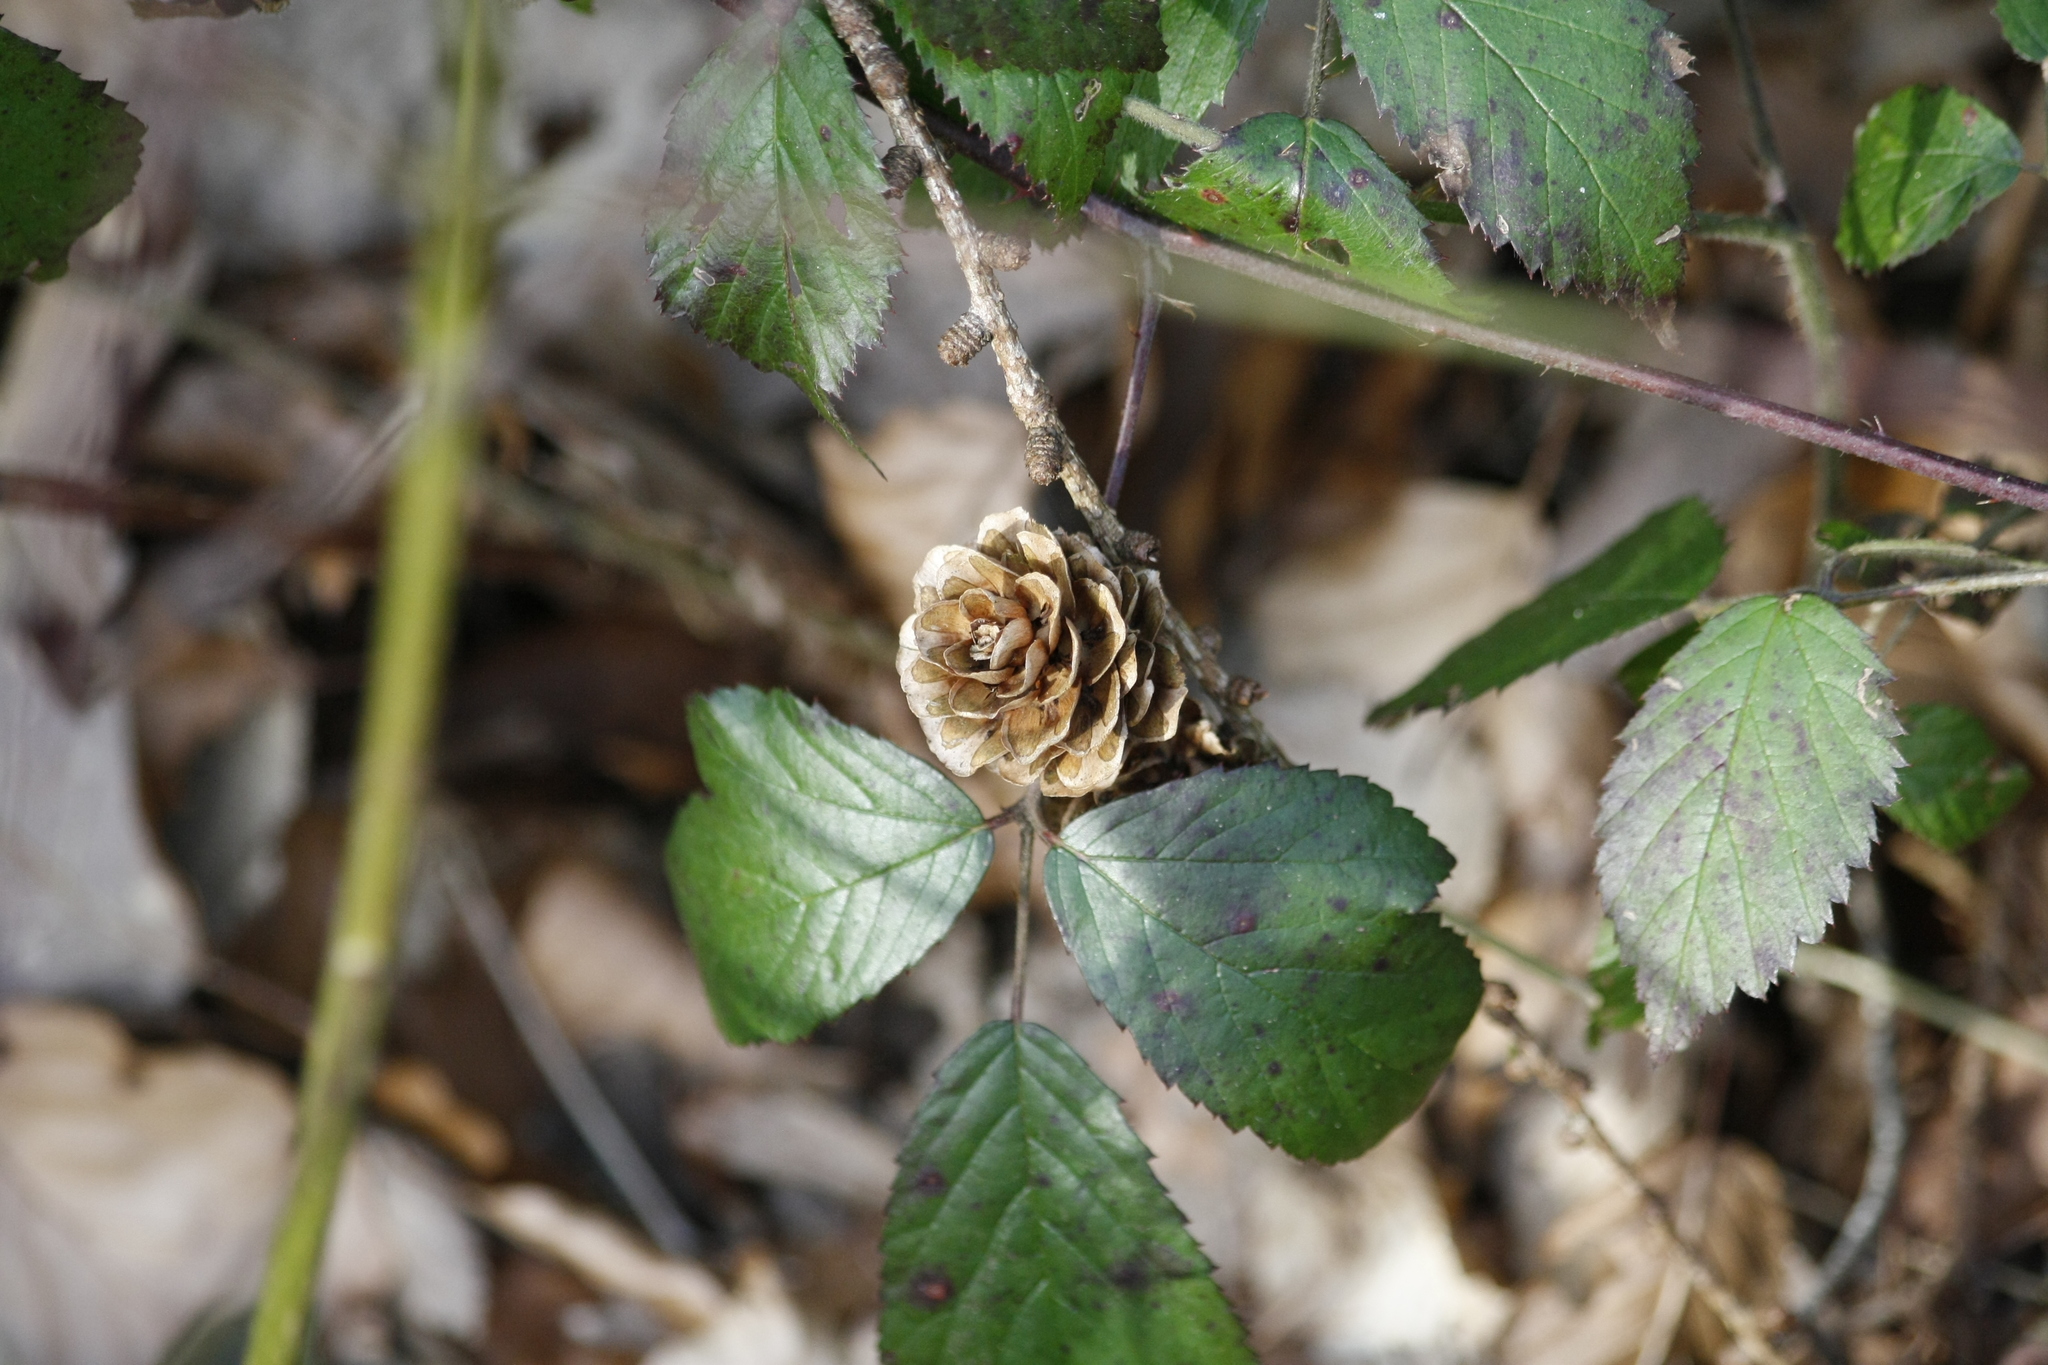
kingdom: Plantae
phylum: Tracheophyta
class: Pinopsida
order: Pinales
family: Pinaceae
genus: Larix
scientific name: Larix decidua
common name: European larch
